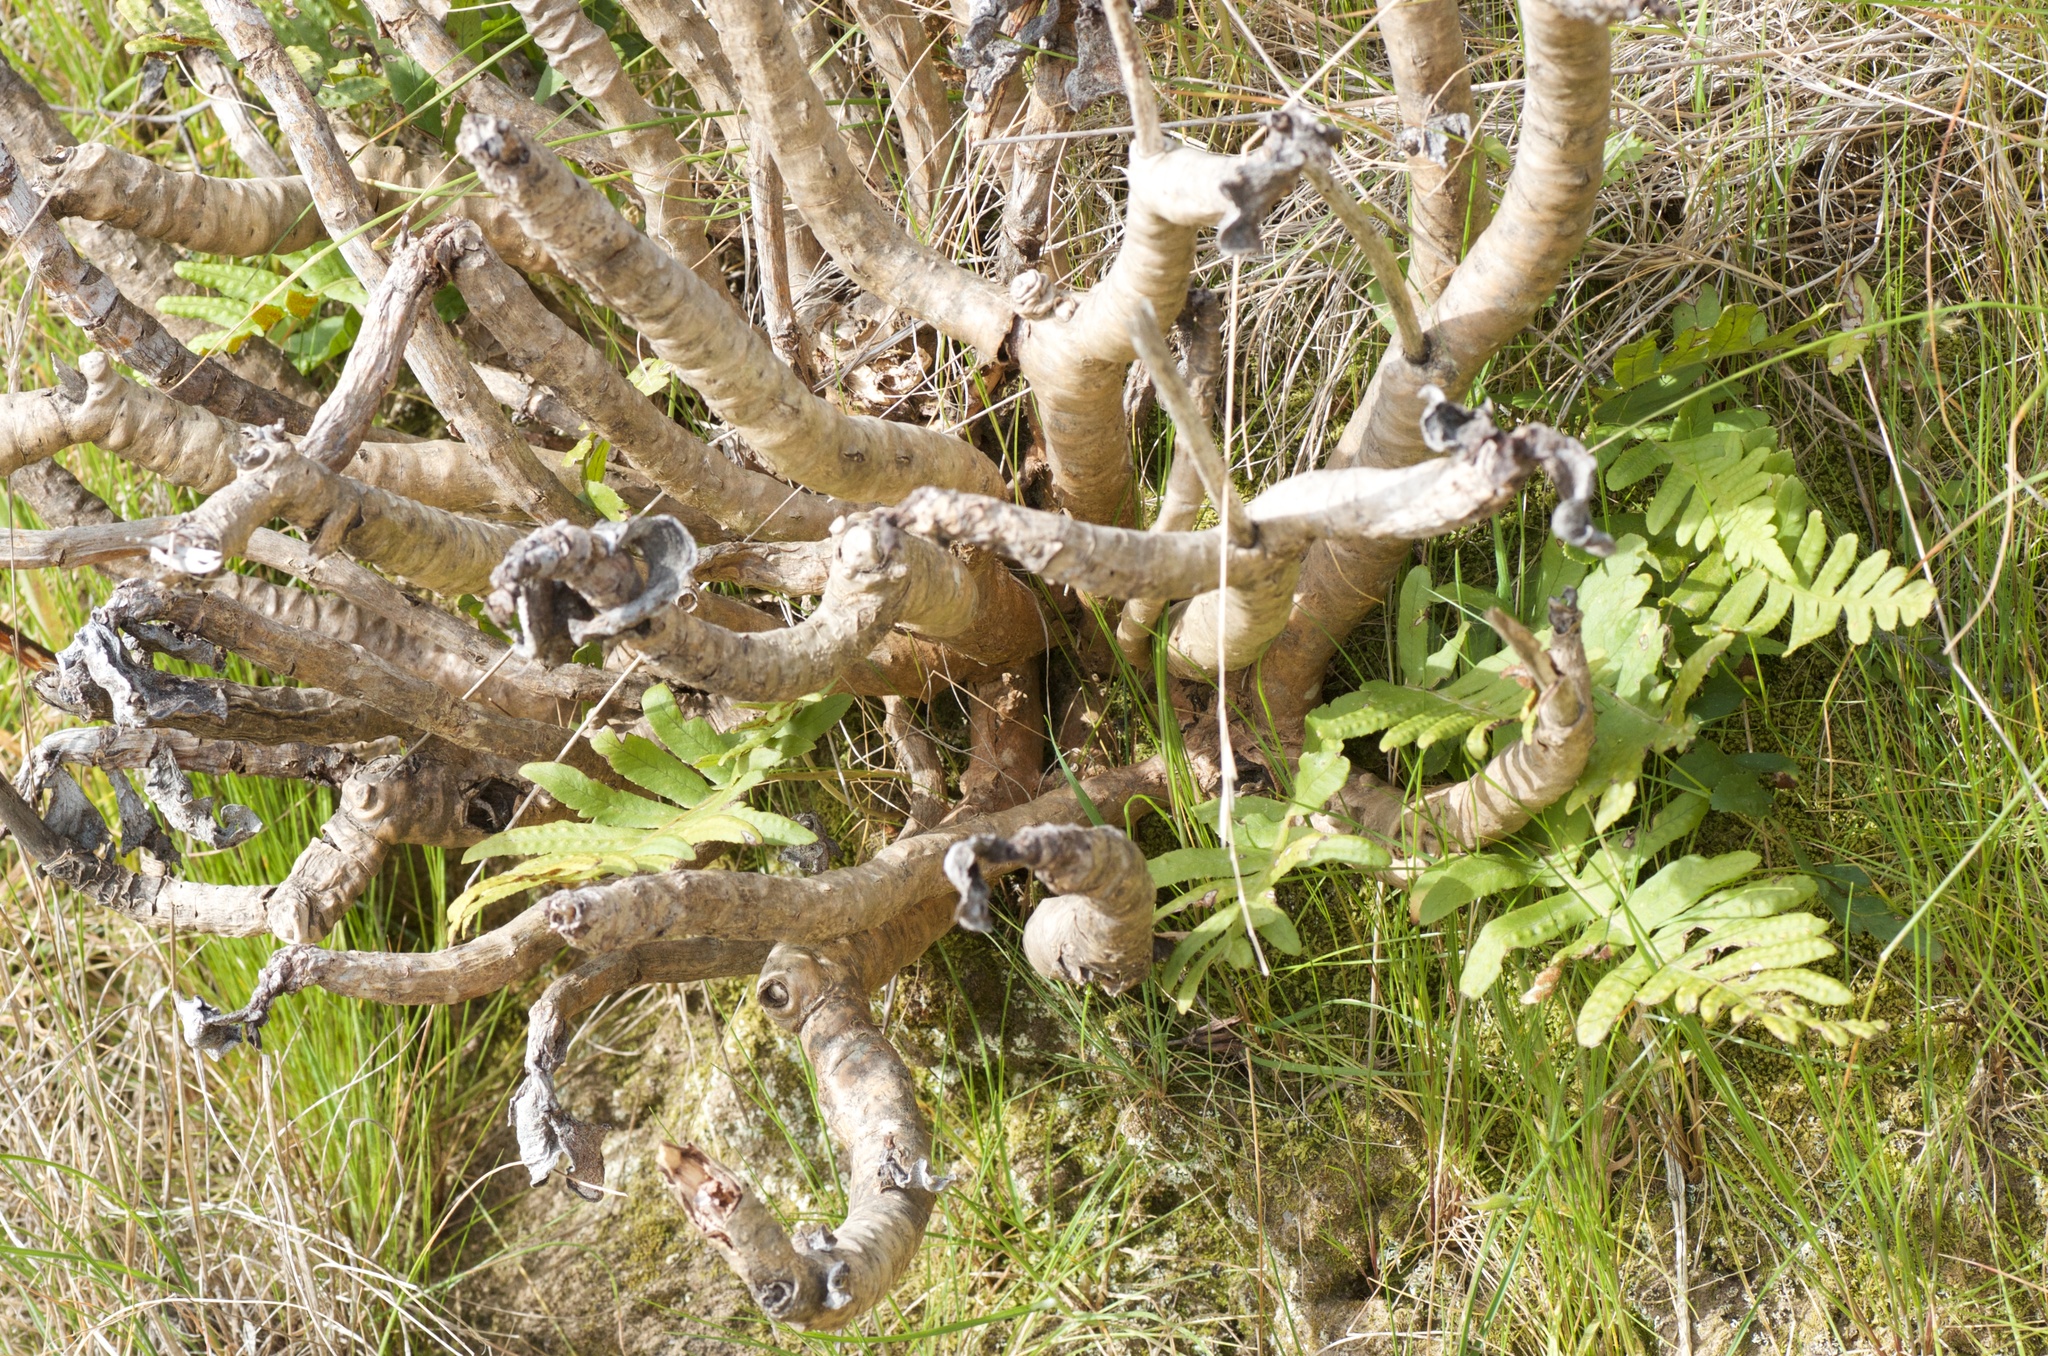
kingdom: Plantae
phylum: Tracheophyta
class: Polypodiopsida
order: Polypodiales
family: Polypodiaceae
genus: Polypodium
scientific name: Polypodium vulgare
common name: Common polypody
